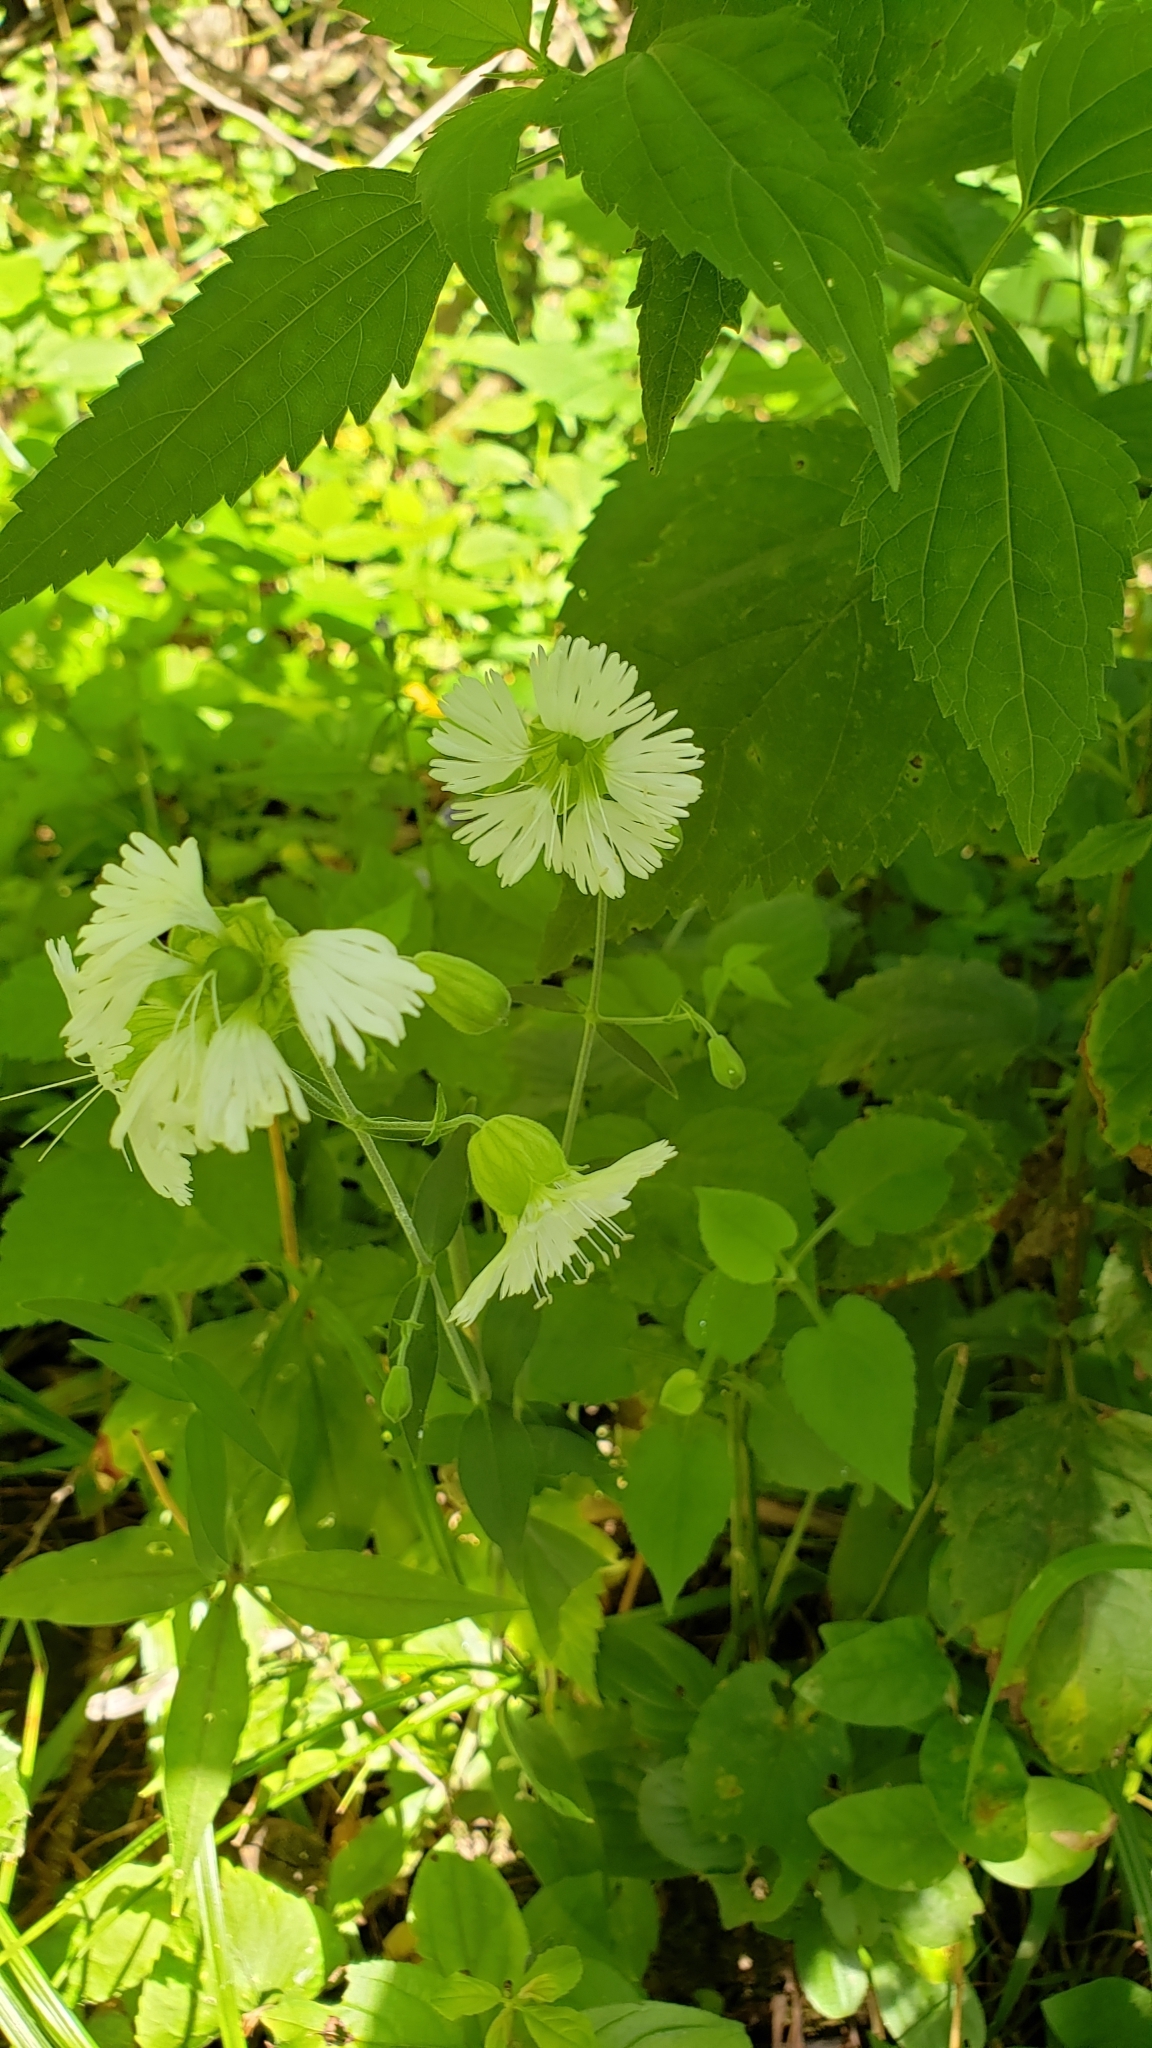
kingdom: Plantae
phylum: Tracheophyta
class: Magnoliopsida
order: Caryophyllales
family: Caryophyllaceae
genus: Silene
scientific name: Silene stellata
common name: Starry campion
